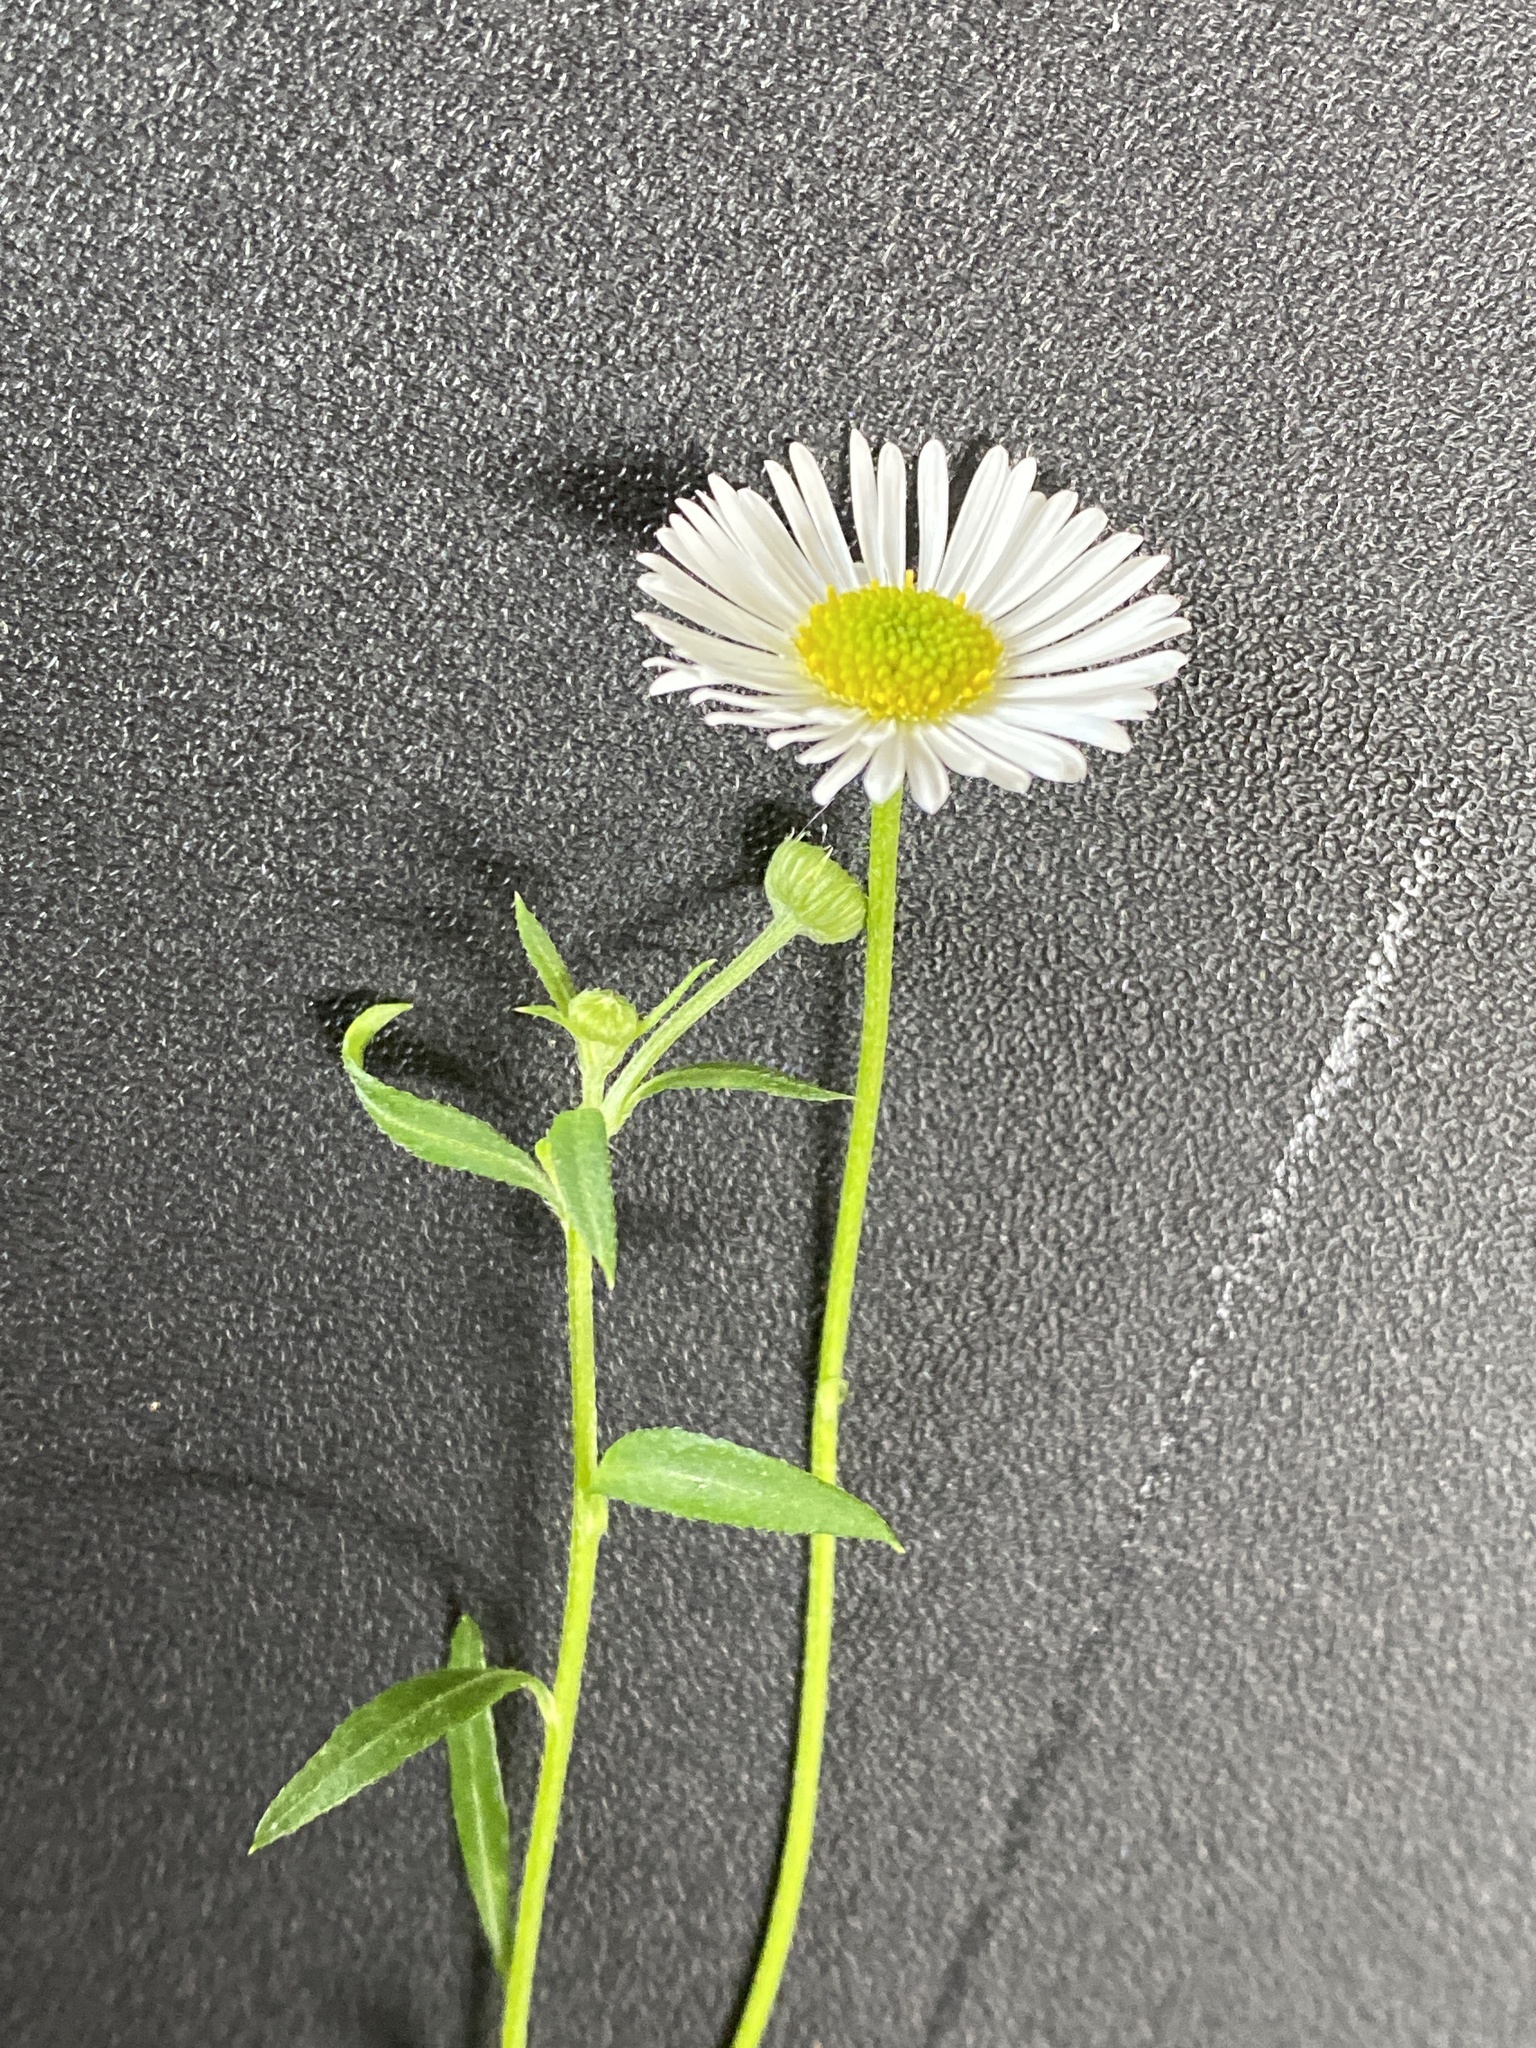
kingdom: Plantae
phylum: Tracheophyta
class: Magnoliopsida
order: Asterales
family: Asteraceae
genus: Erigeron
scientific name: Erigeron karvinskianus
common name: Mexican fleabane
